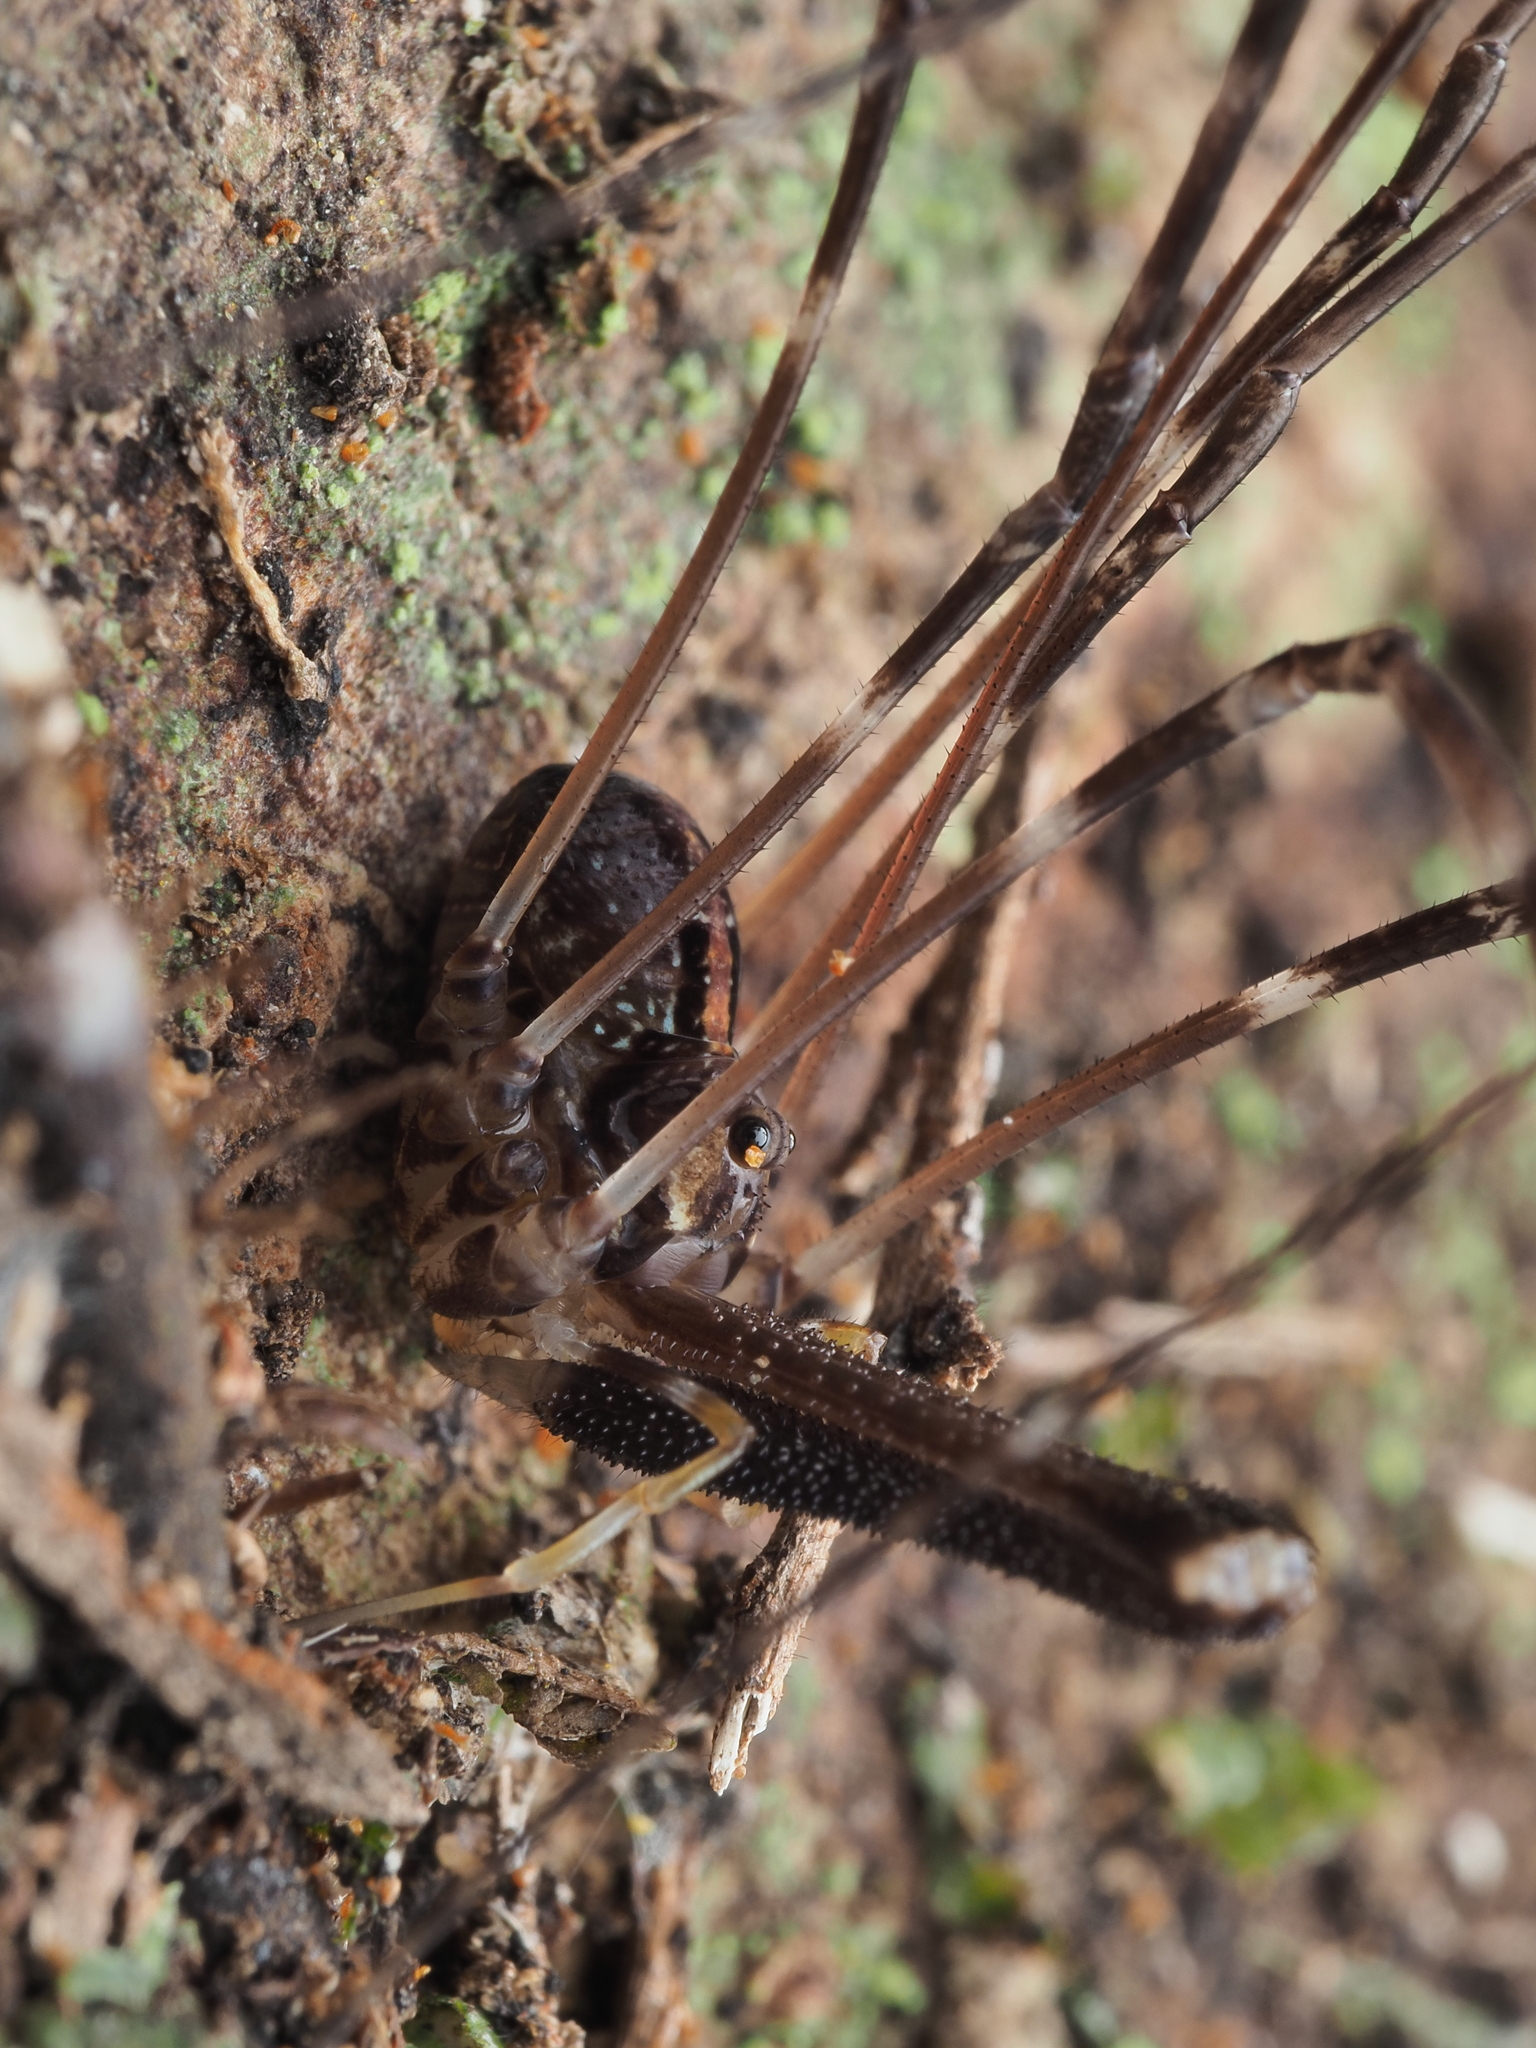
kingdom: Animalia
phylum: Arthropoda
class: Arachnida
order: Opiliones
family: Neopilionidae
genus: Forsteropsalis
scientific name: Forsteropsalis pureora
